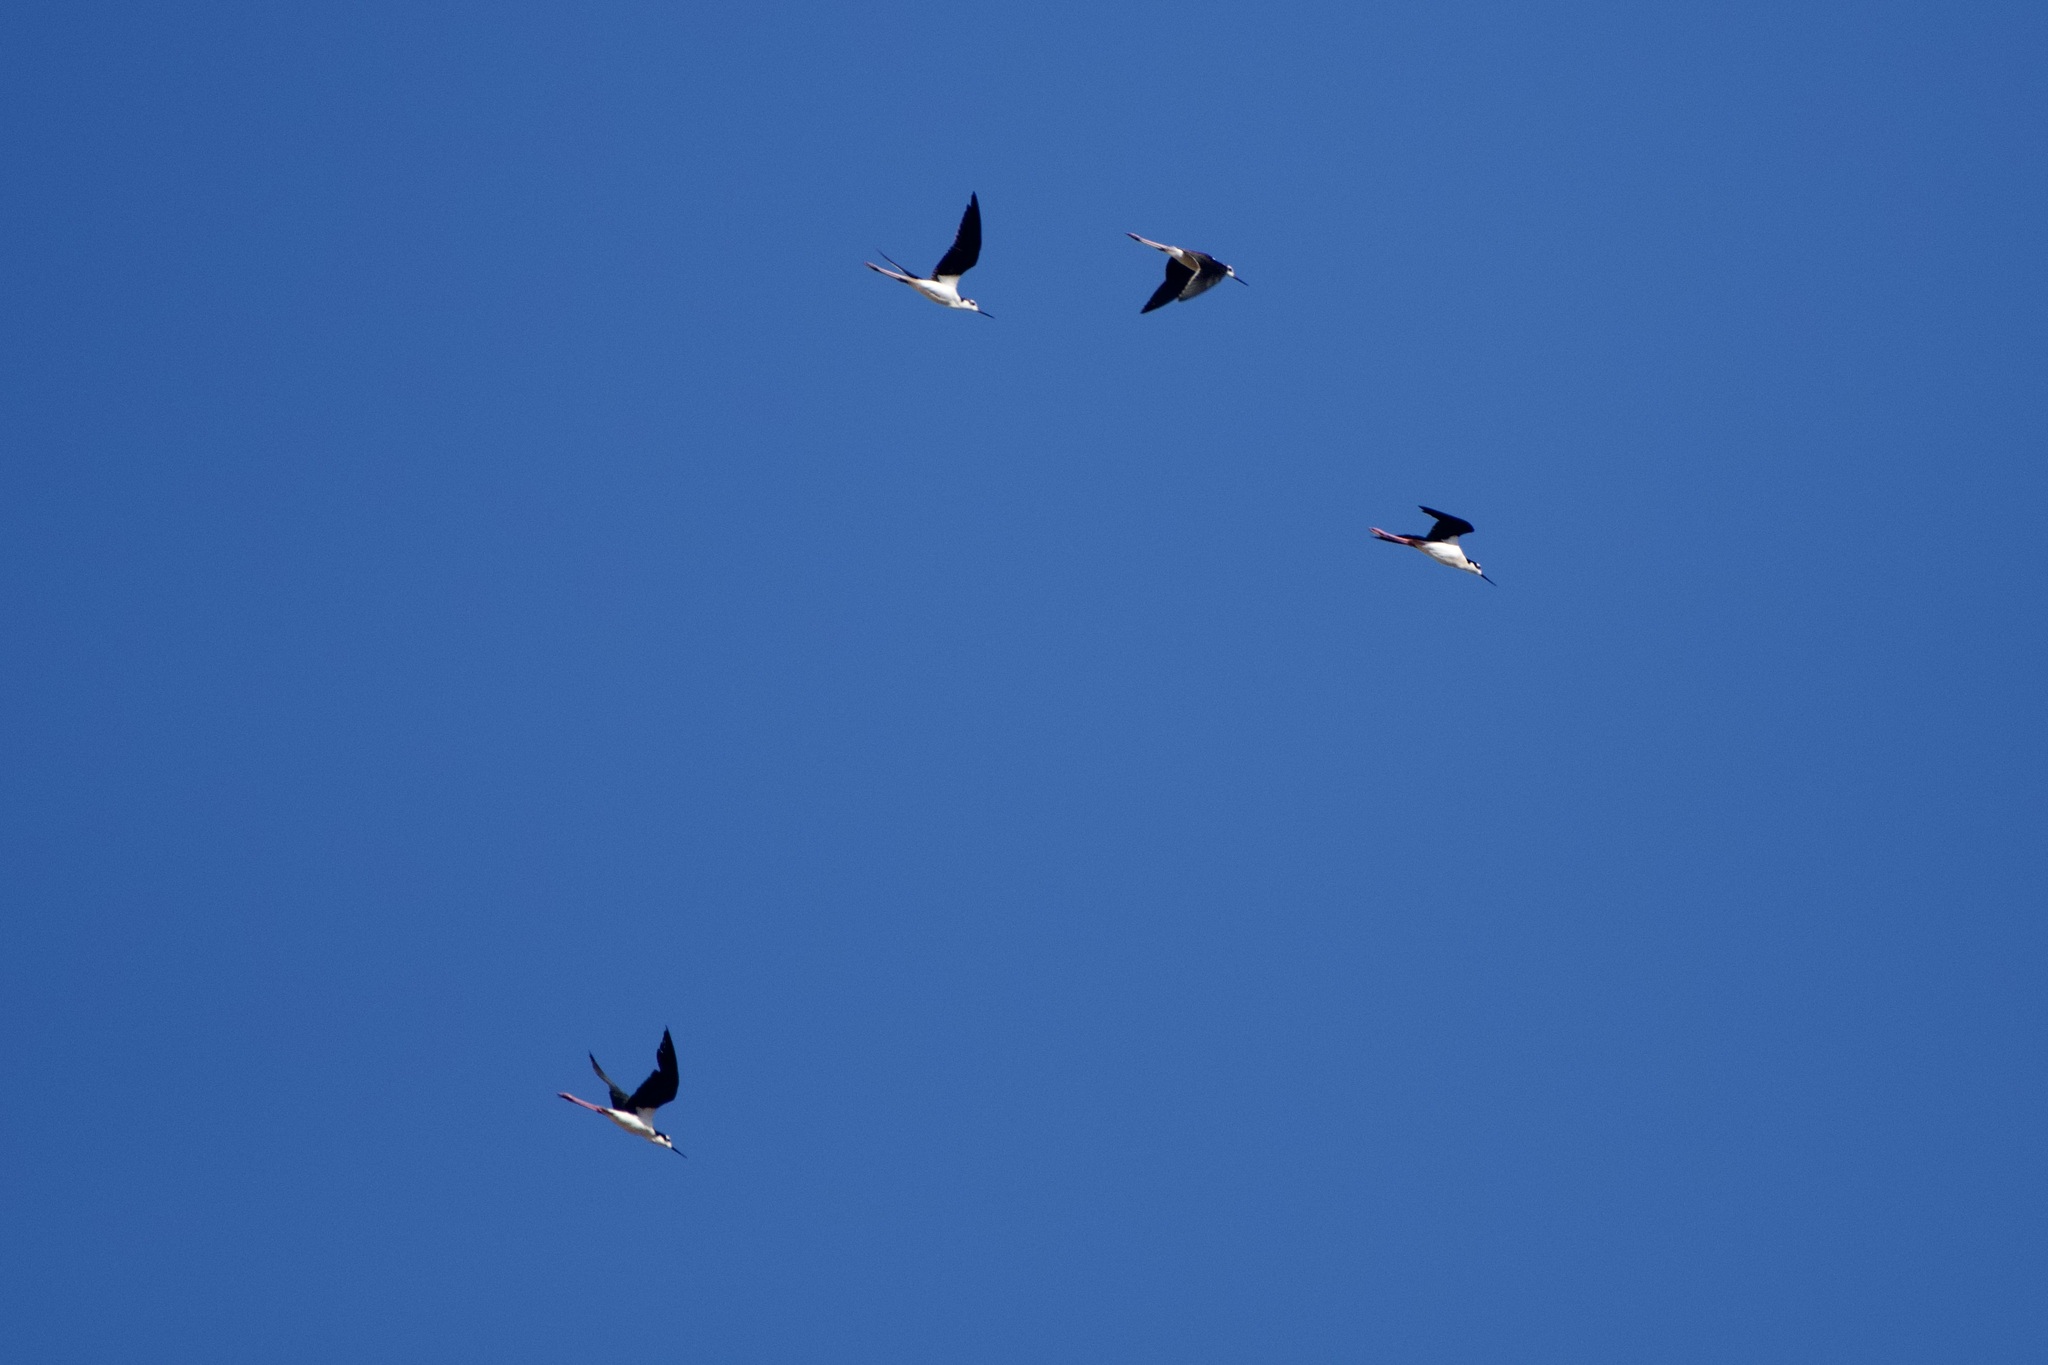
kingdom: Animalia
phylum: Chordata
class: Aves
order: Charadriiformes
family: Recurvirostridae
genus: Himantopus
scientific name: Himantopus mexicanus
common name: Black-necked stilt
